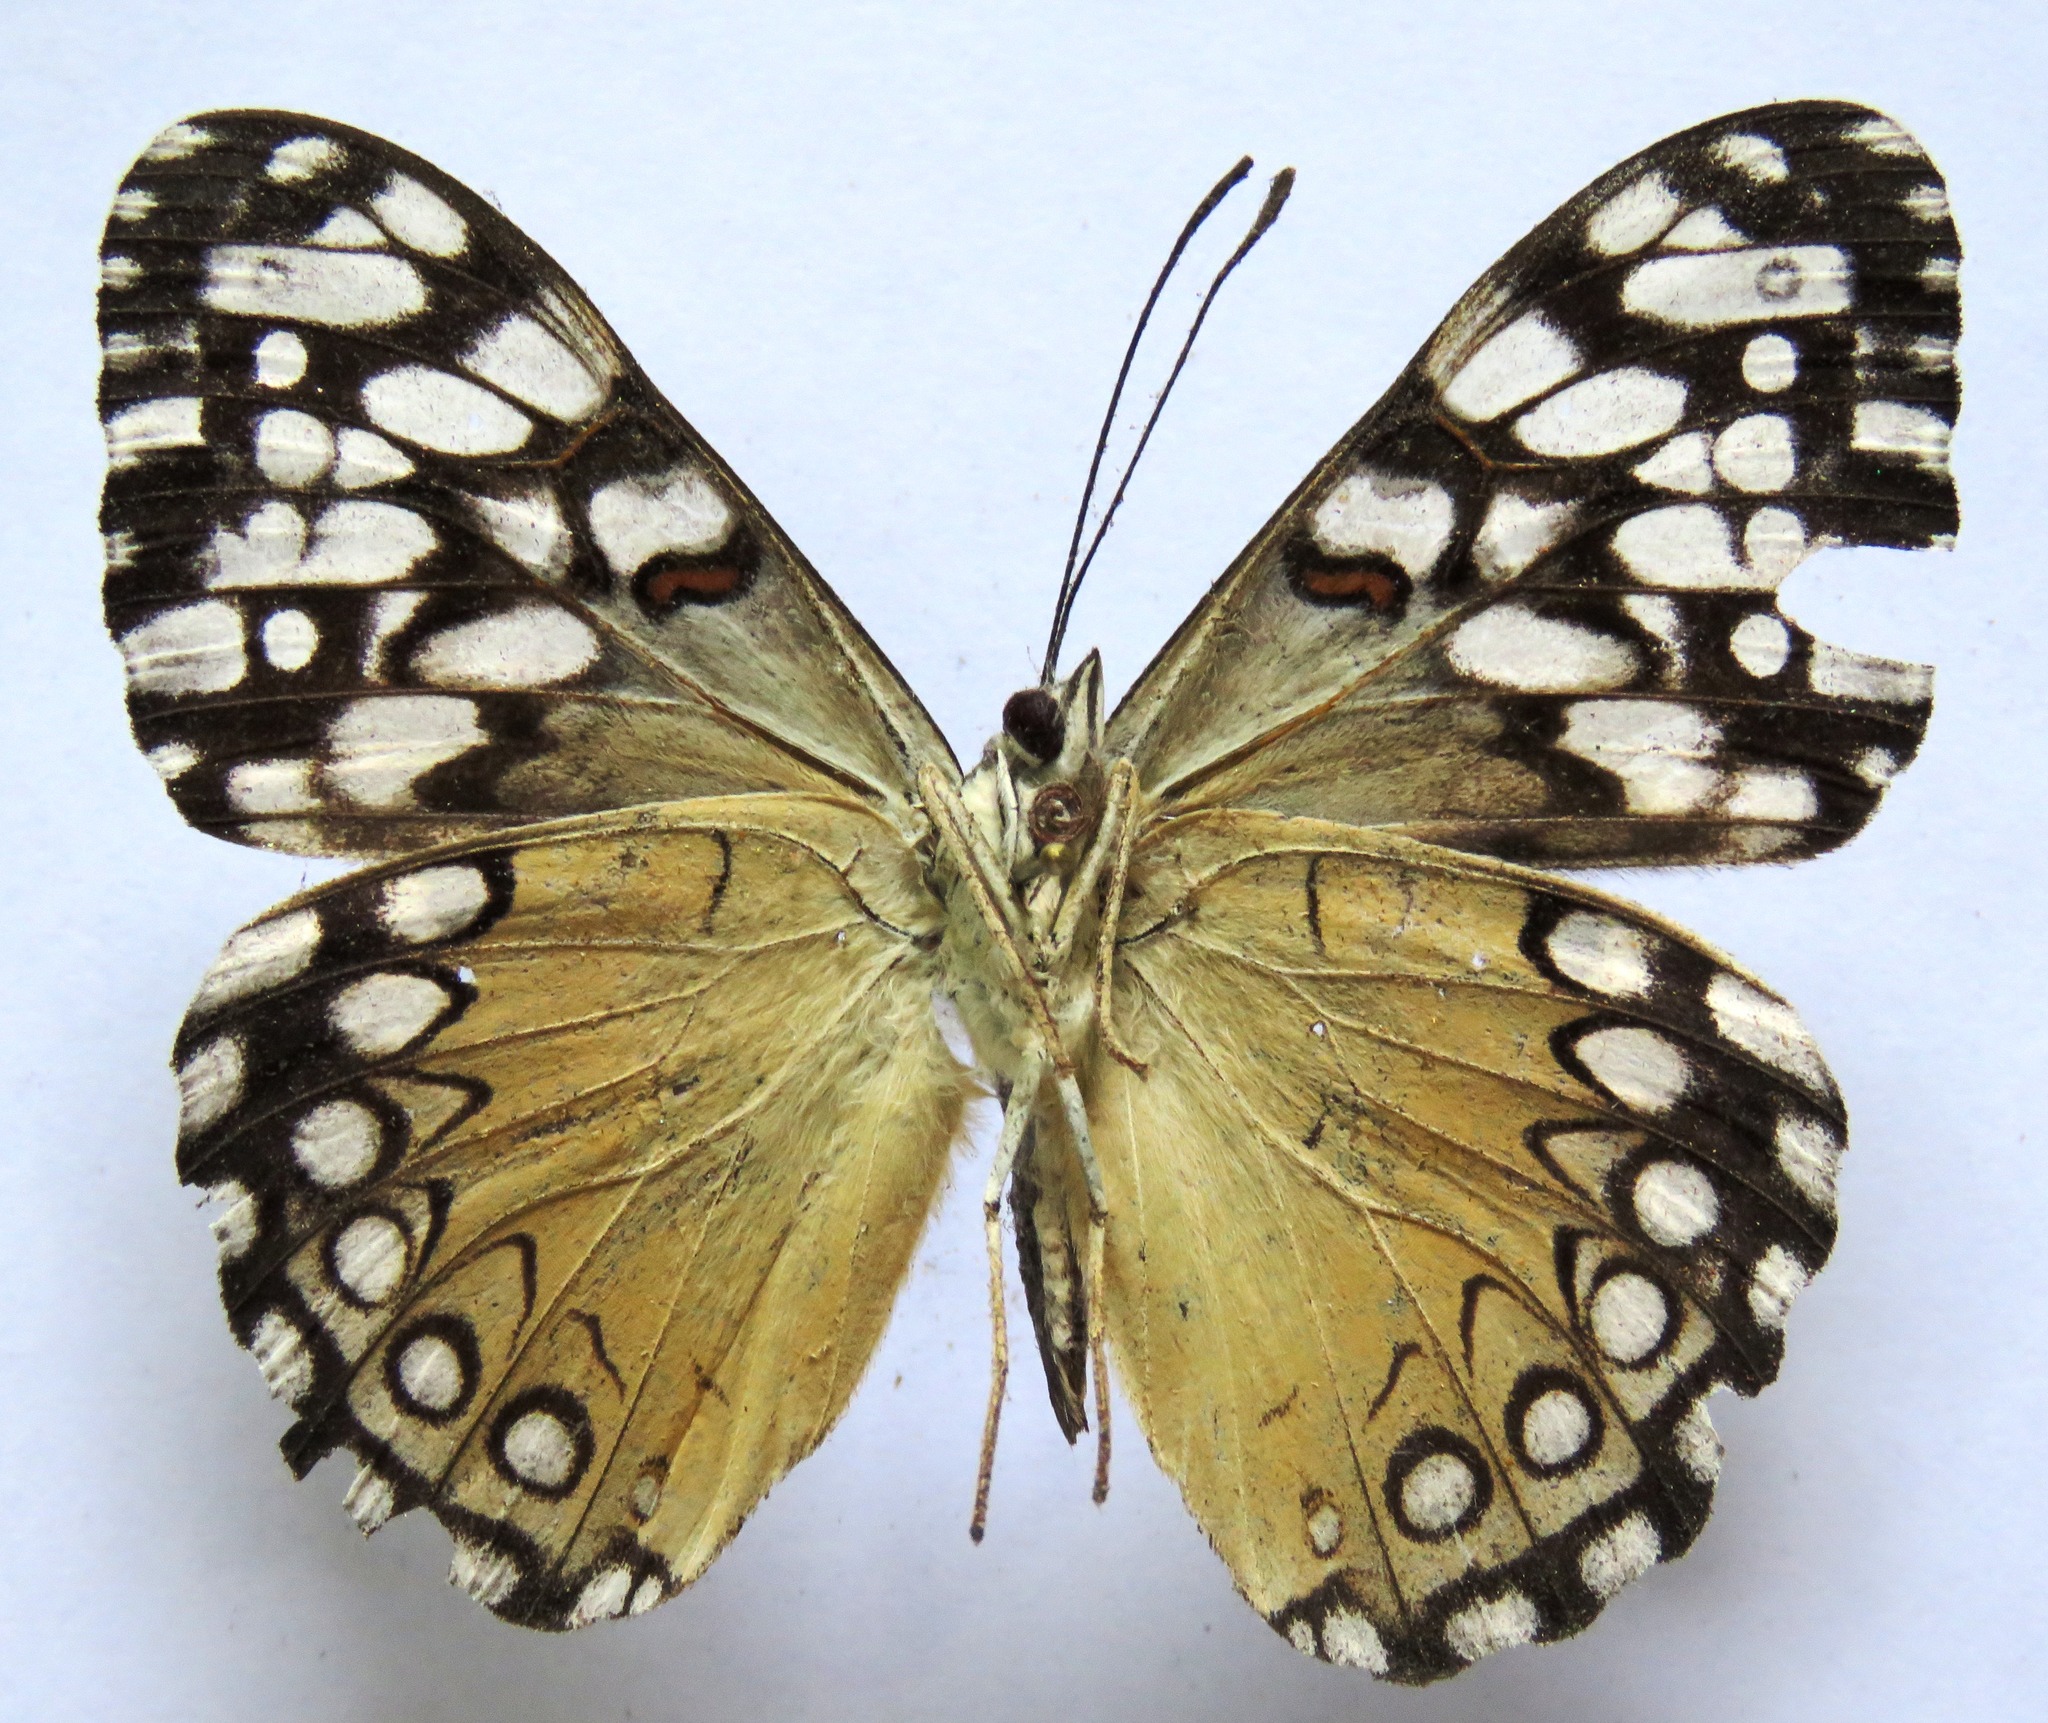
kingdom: Animalia
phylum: Arthropoda
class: Insecta
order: Lepidoptera
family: Nymphalidae
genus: Hamadryas
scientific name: Hamadryas guatemalena
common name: Guatemalan cracker
